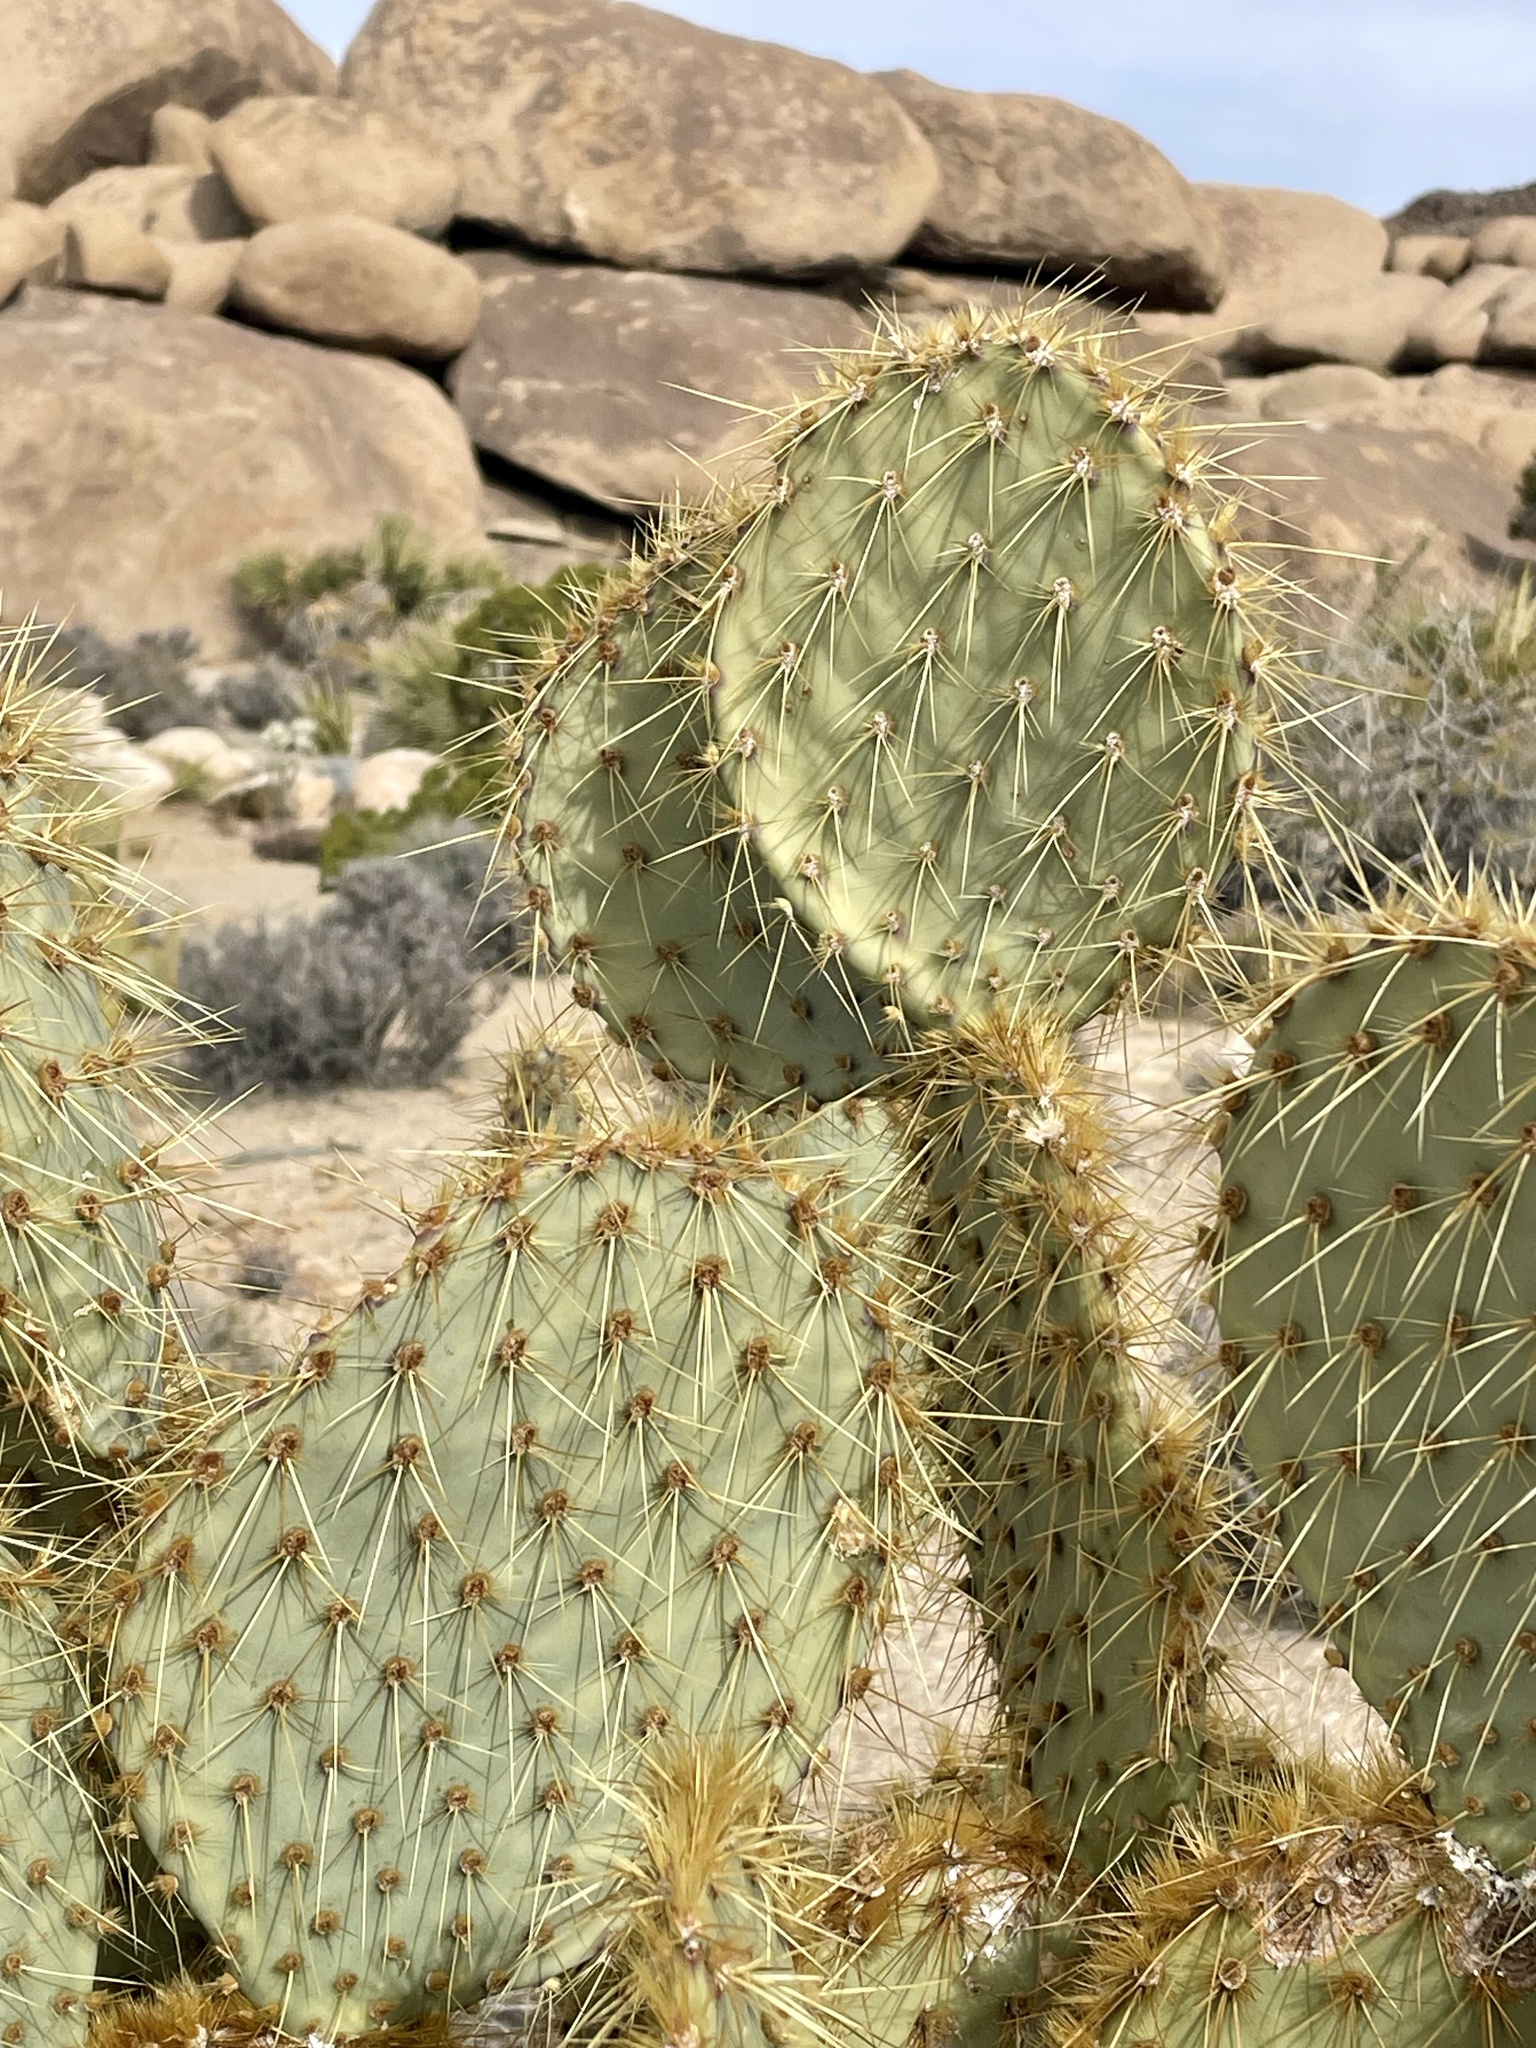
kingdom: Plantae
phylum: Tracheophyta
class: Magnoliopsida
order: Caryophyllales
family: Cactaceae
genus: Opuntia
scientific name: Opuntia chlorotica
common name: Dollar-joint prickly-pear
